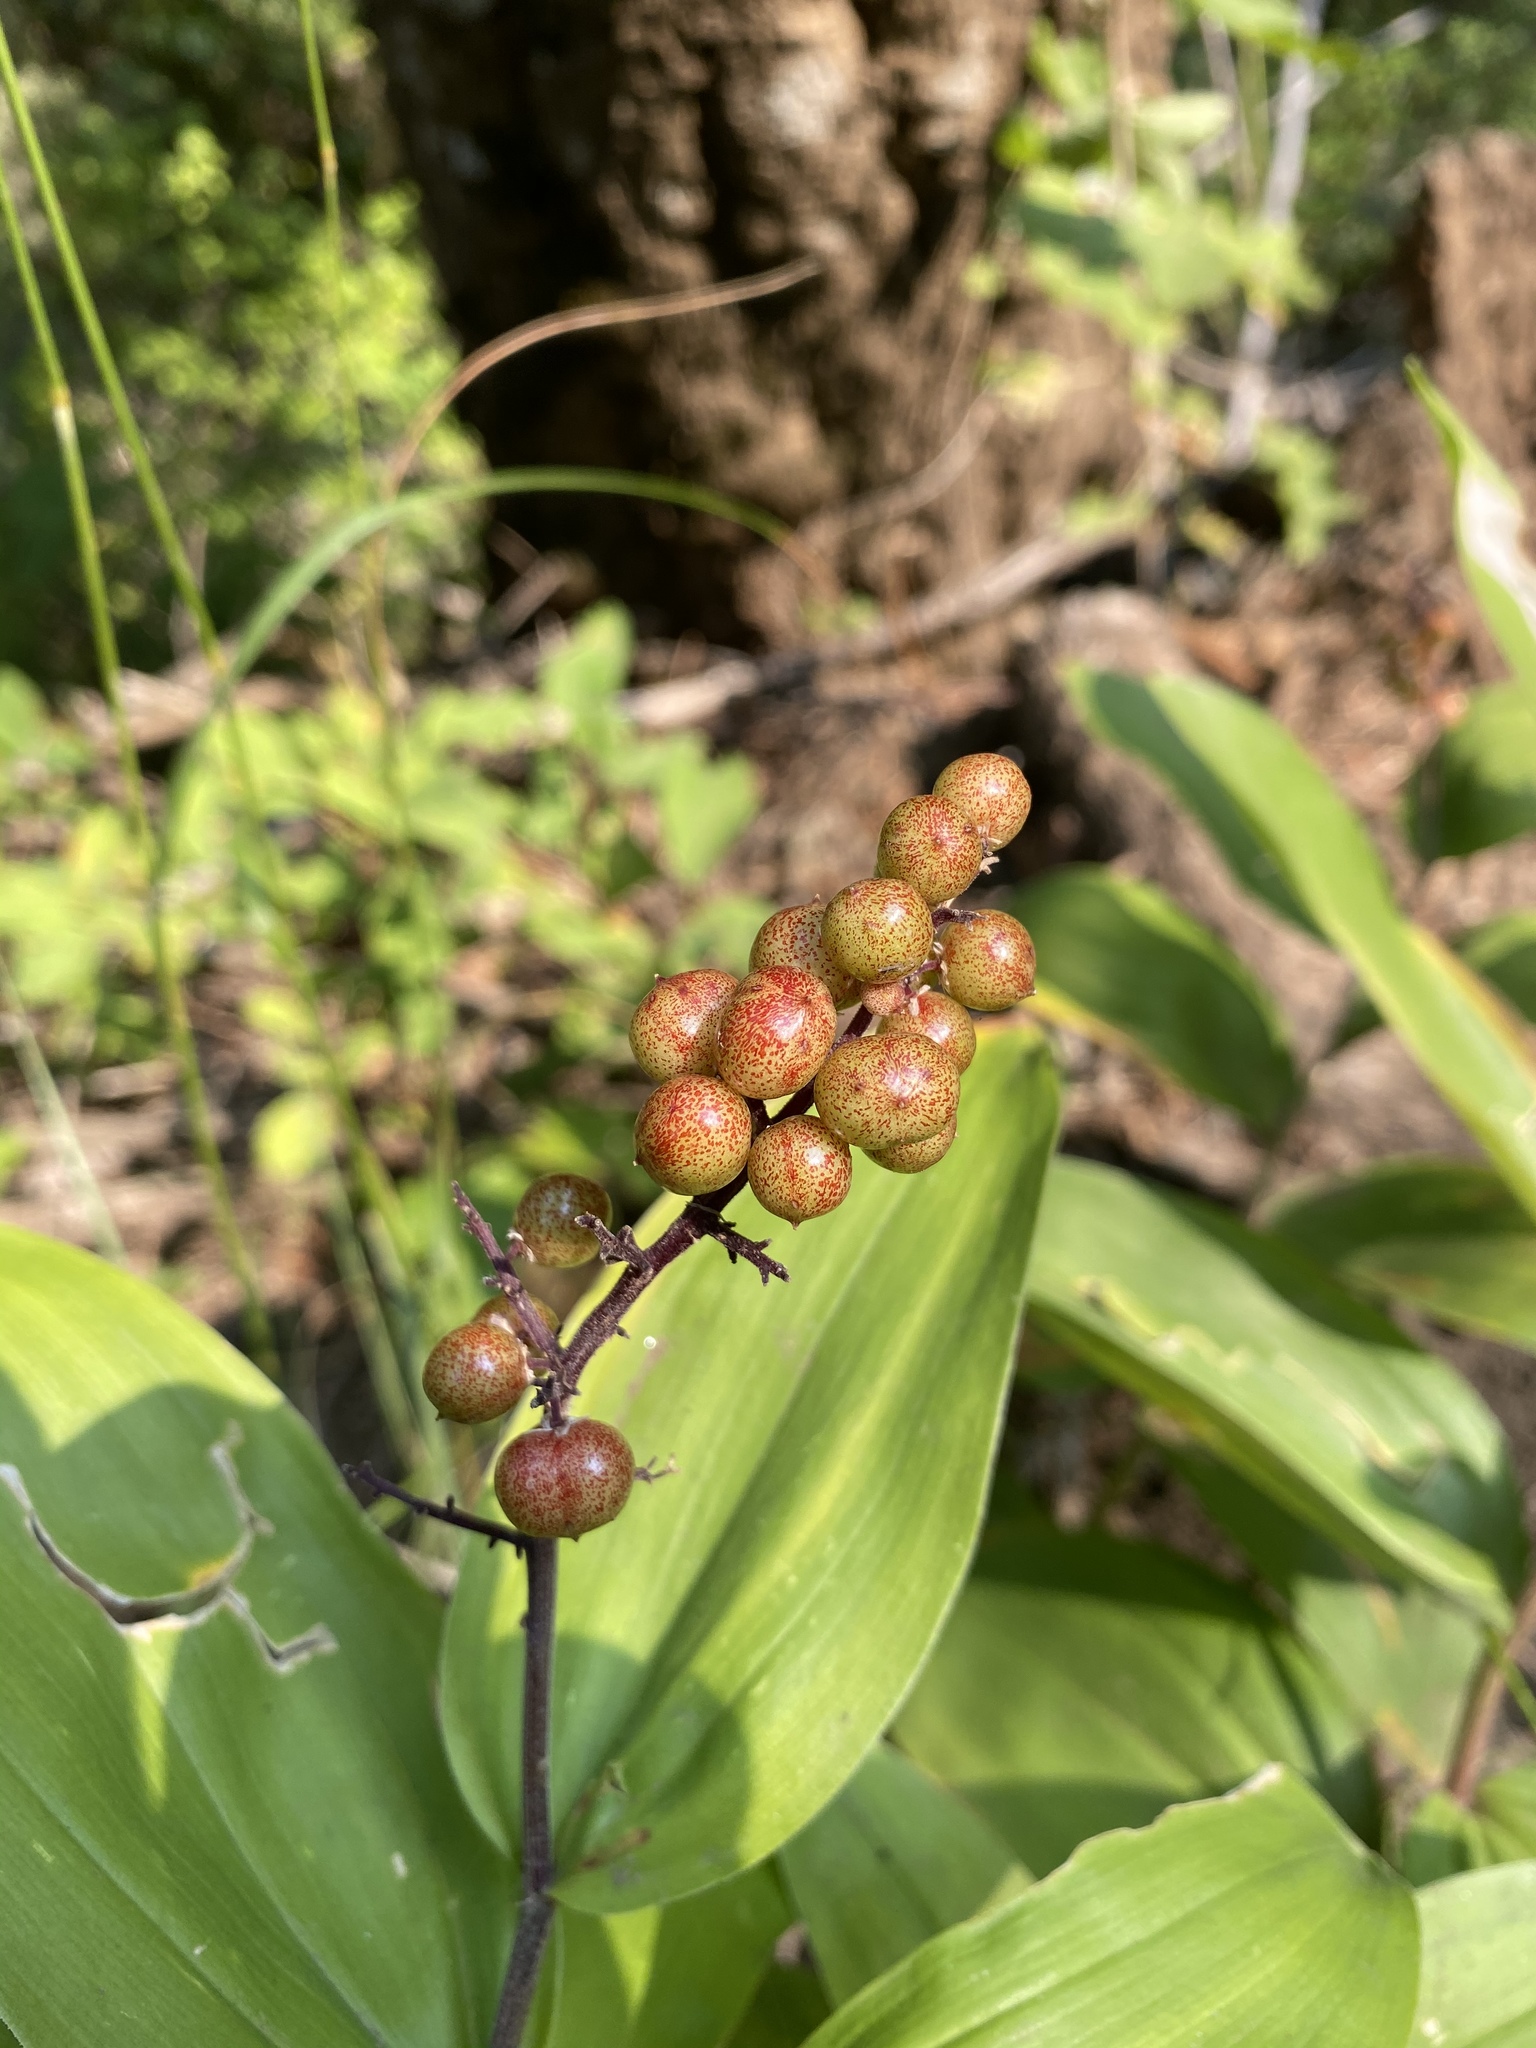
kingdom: Plantae
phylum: Tracheophyta
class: Liliopsida
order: Asparagales
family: Asparagaceae
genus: Maianthemum
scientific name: Maianthemum racemosum
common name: False spikenard
